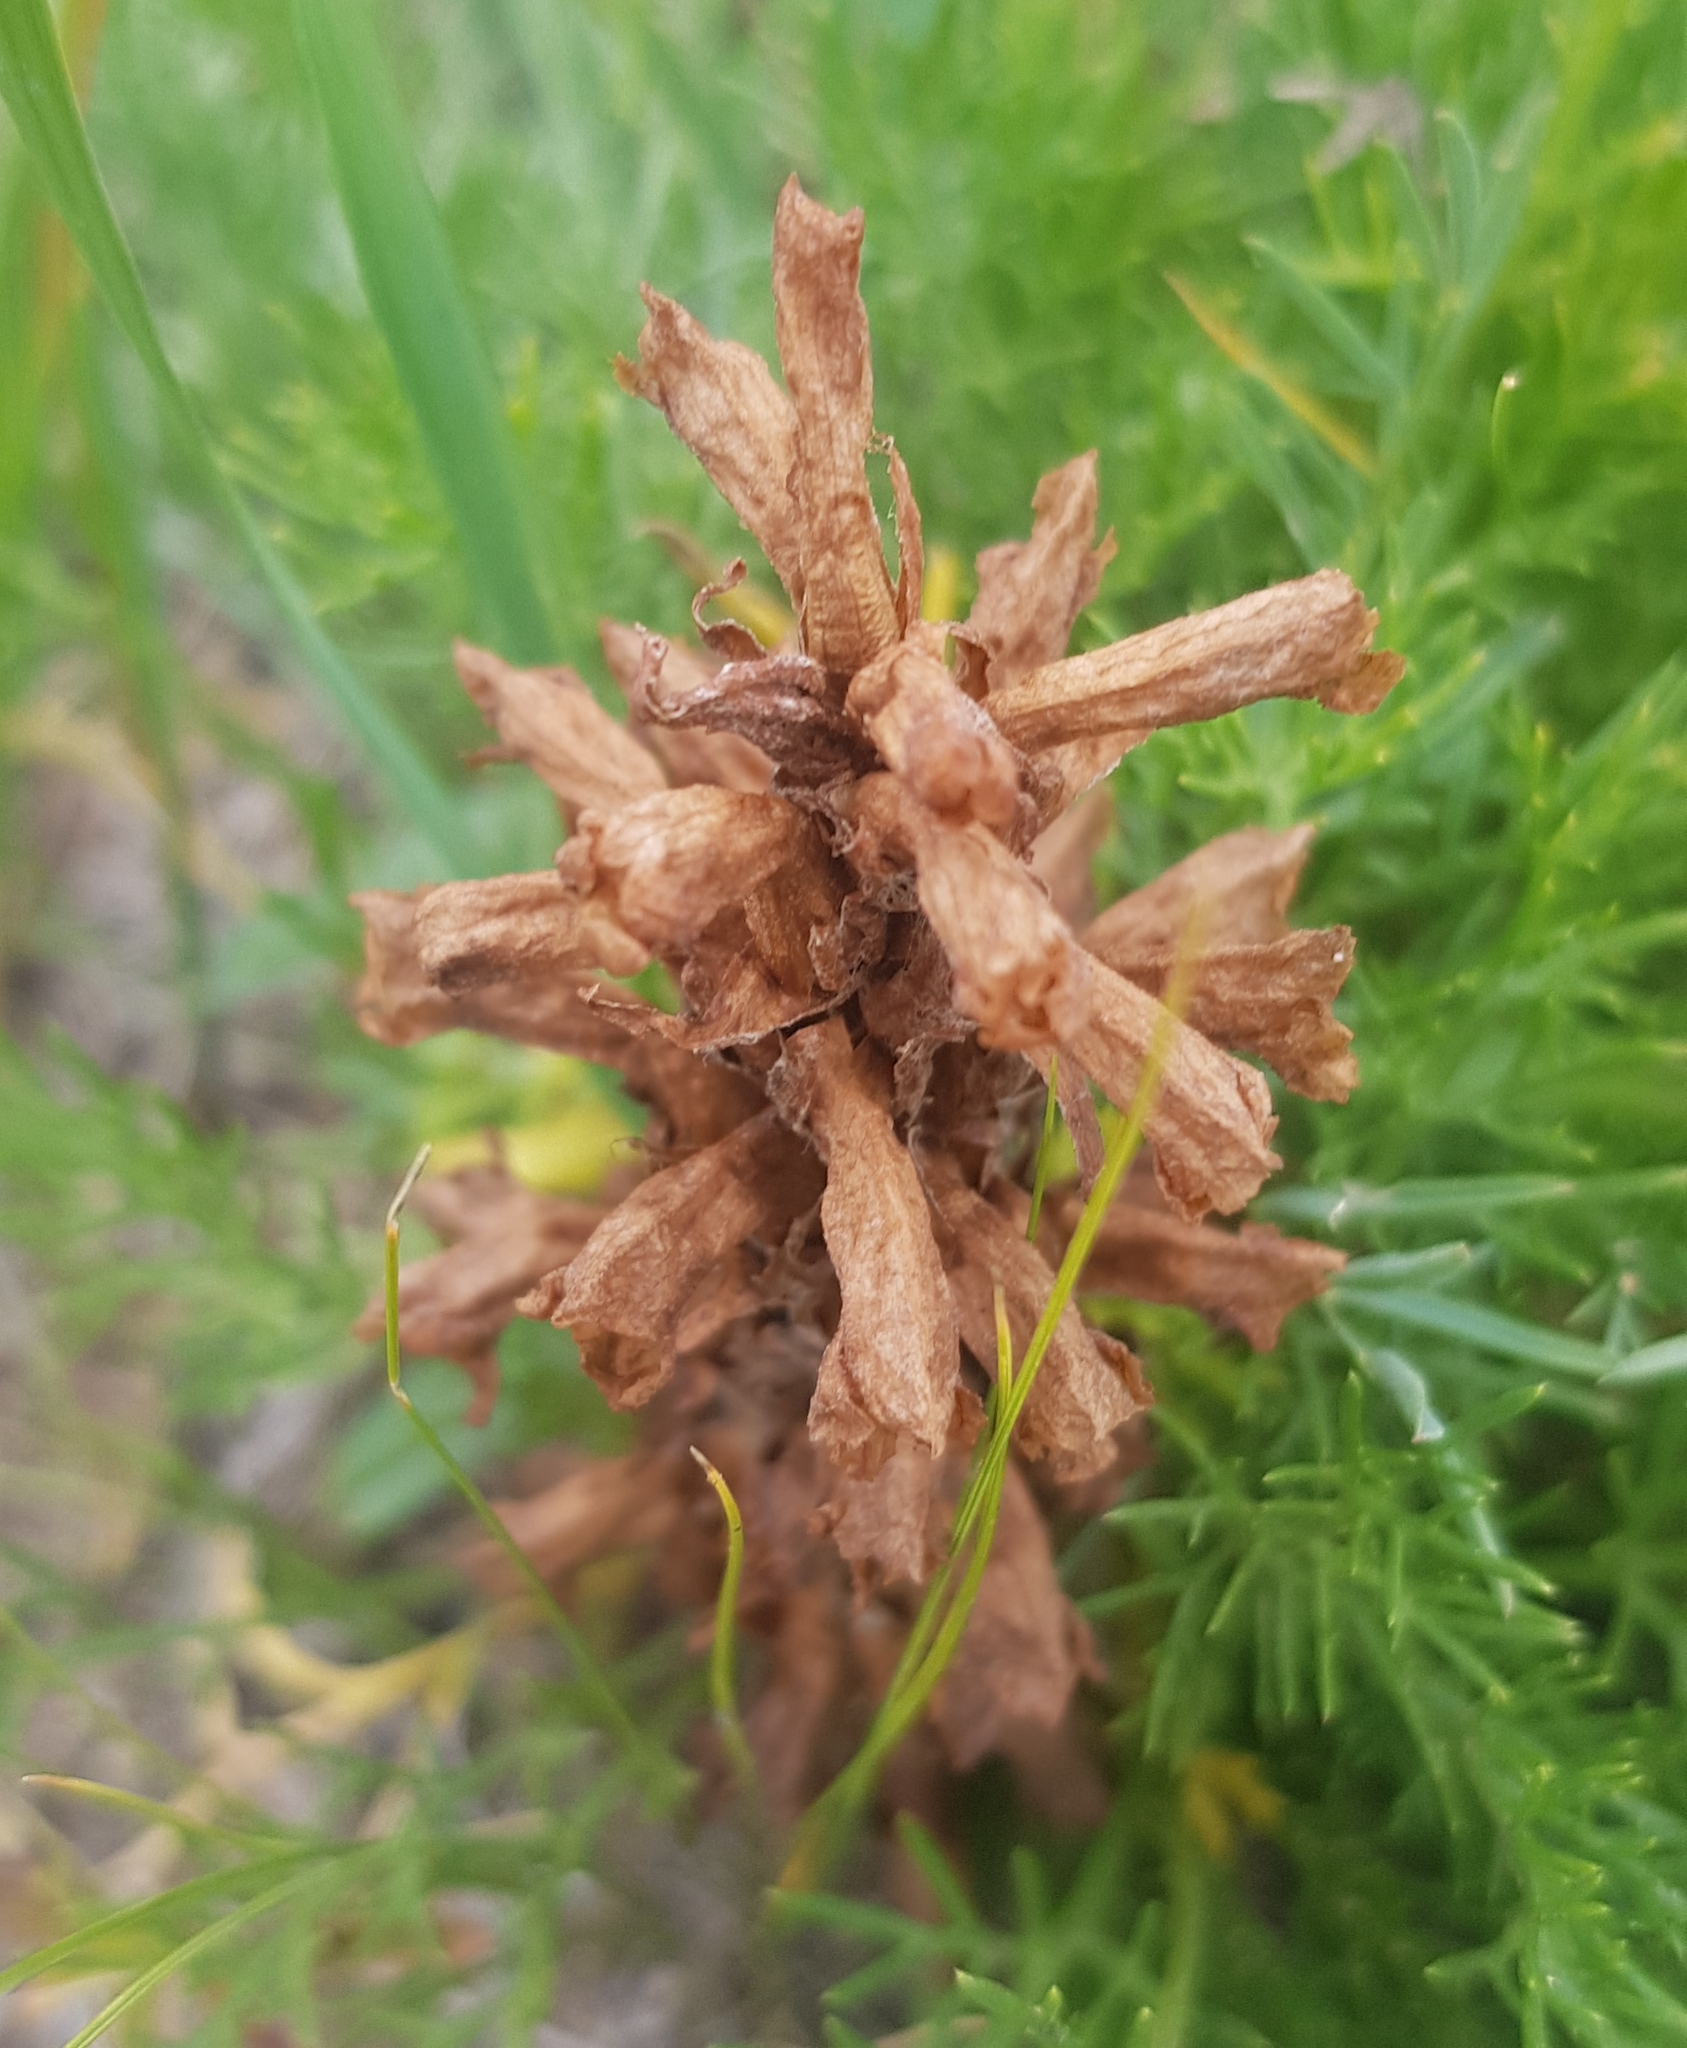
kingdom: Plantae
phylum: Tracheophyta
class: Magnoliopsida
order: Lamiales
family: Orobanchaceae
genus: Orobanche
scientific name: Orobanche coerulescens
